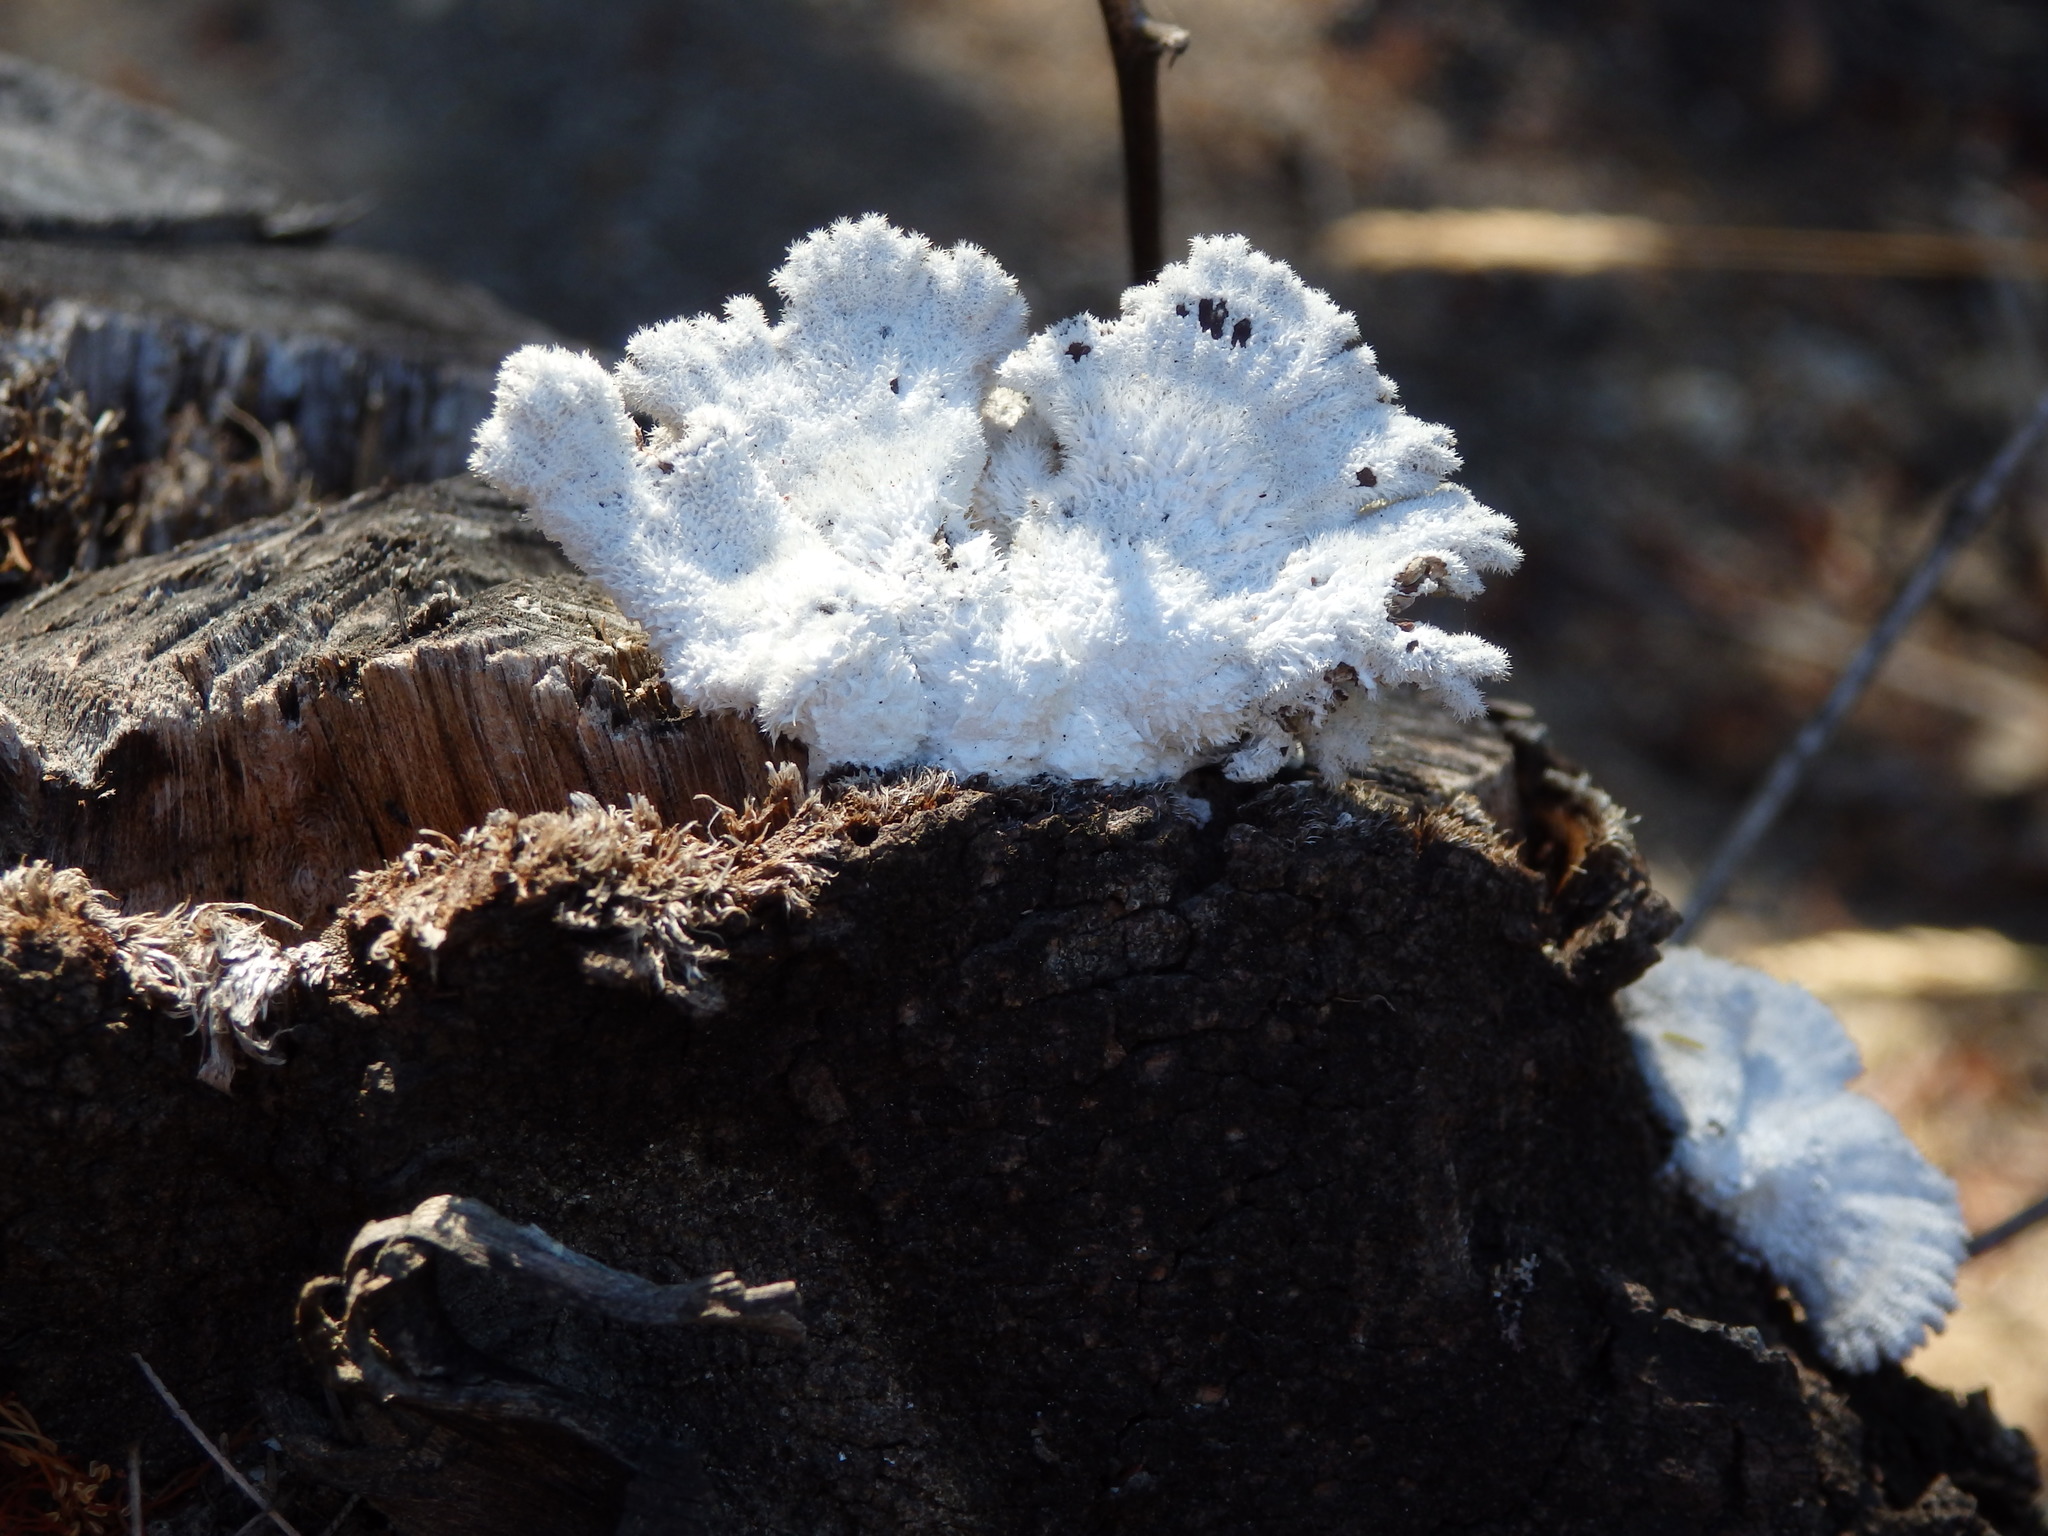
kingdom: Fungi
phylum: Basidiomycota
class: Agaricomycetes
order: Agaricales
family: Schizophyllaceae
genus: Schizophyllum
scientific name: Schizophyllum commune
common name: Common porecrust
